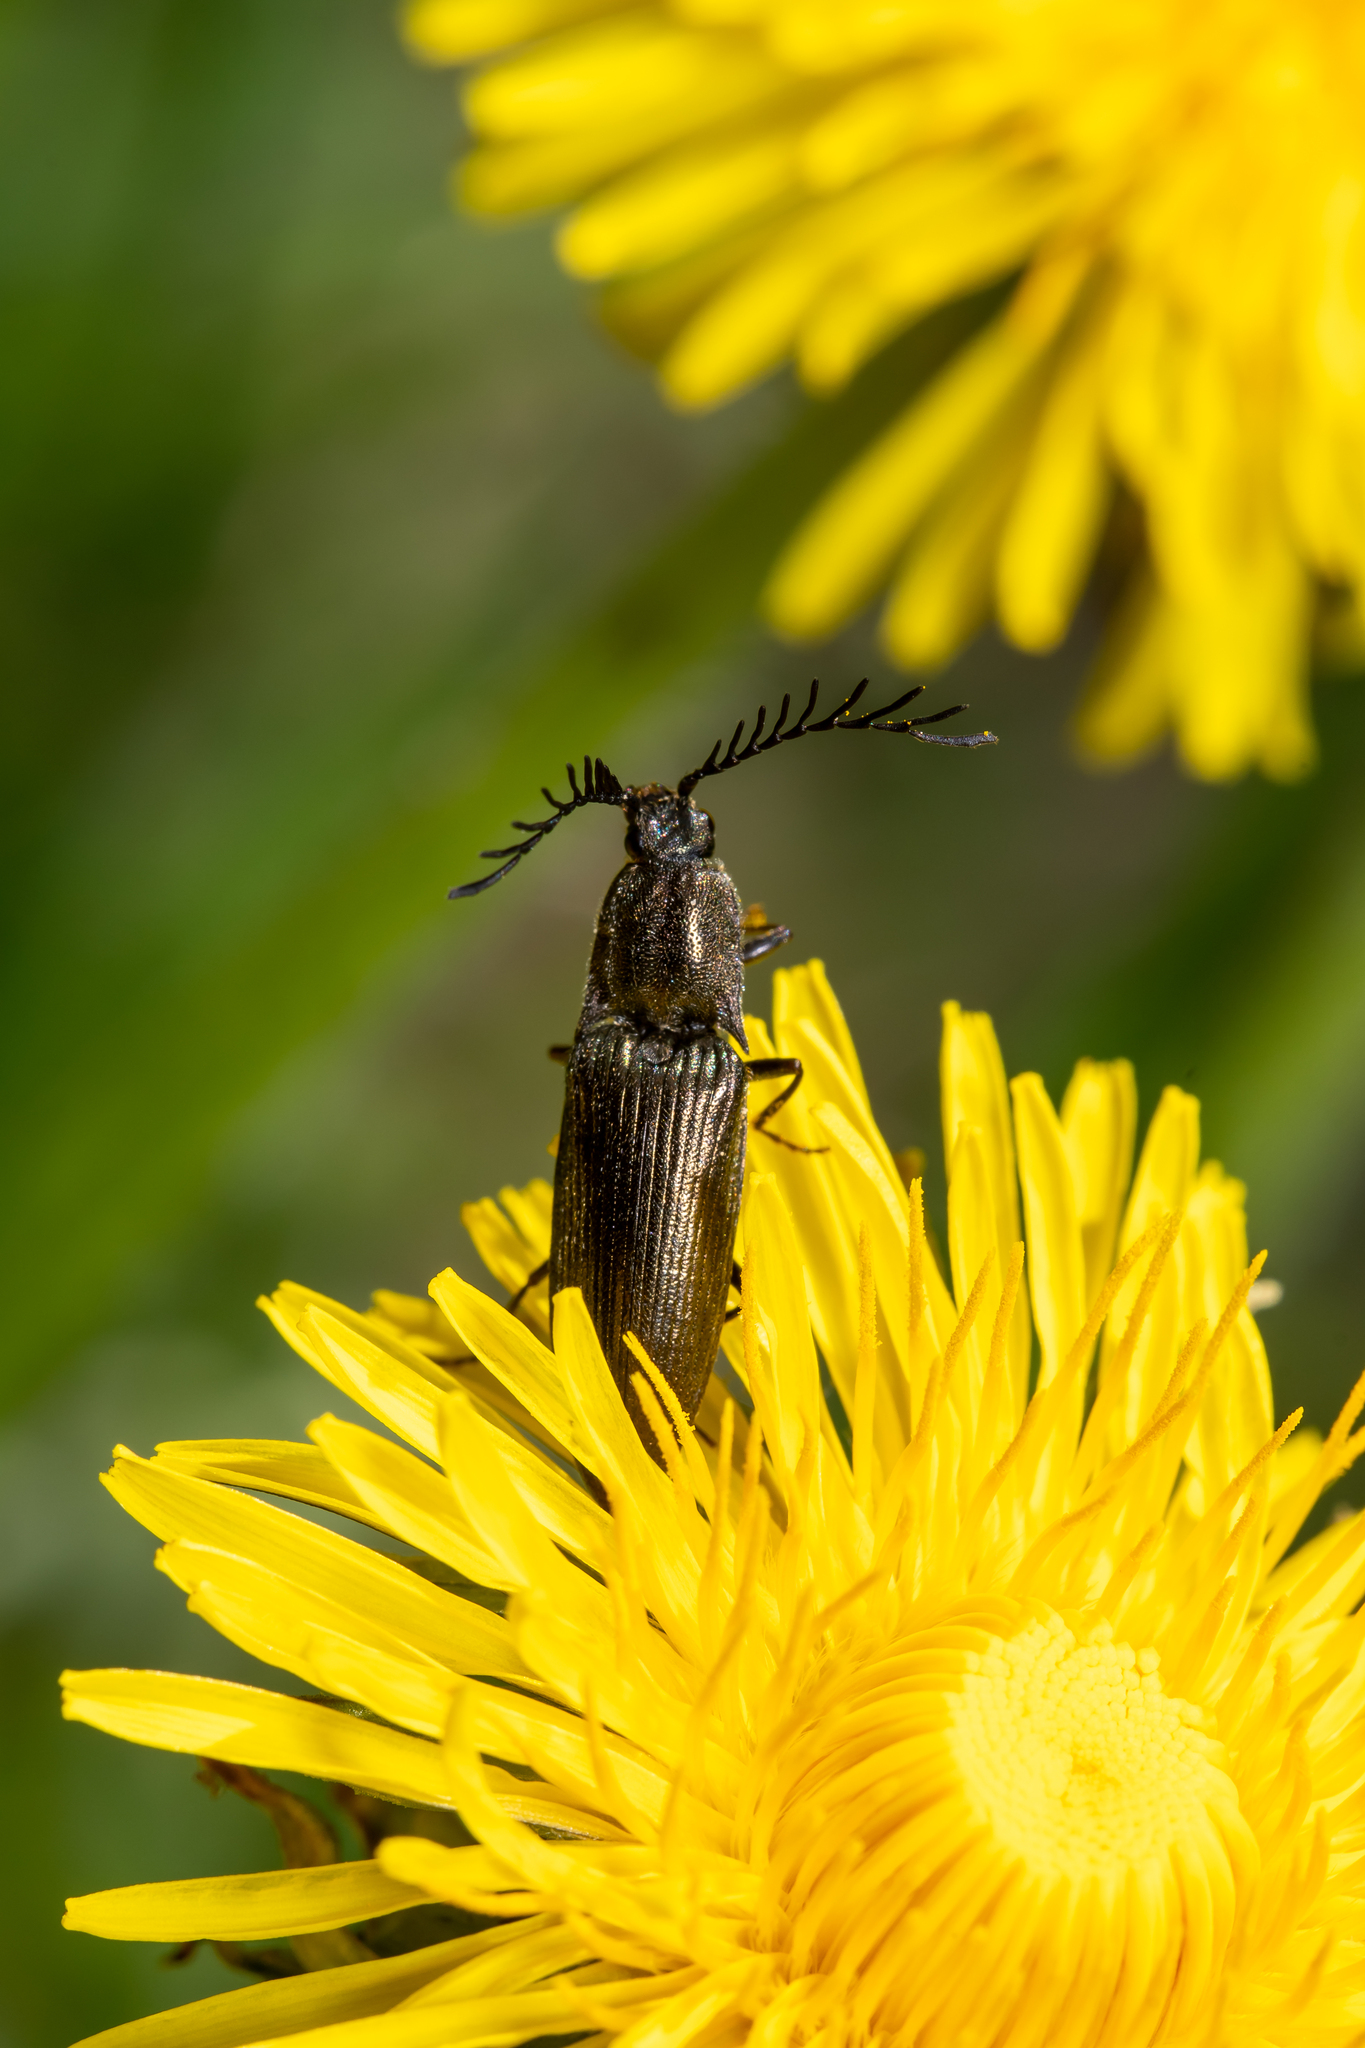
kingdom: Animalia
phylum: Arthropoda
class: Insecta
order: Coleoptera
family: Elateridae
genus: Ctenicera
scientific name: Ctenicera pectinicornis
